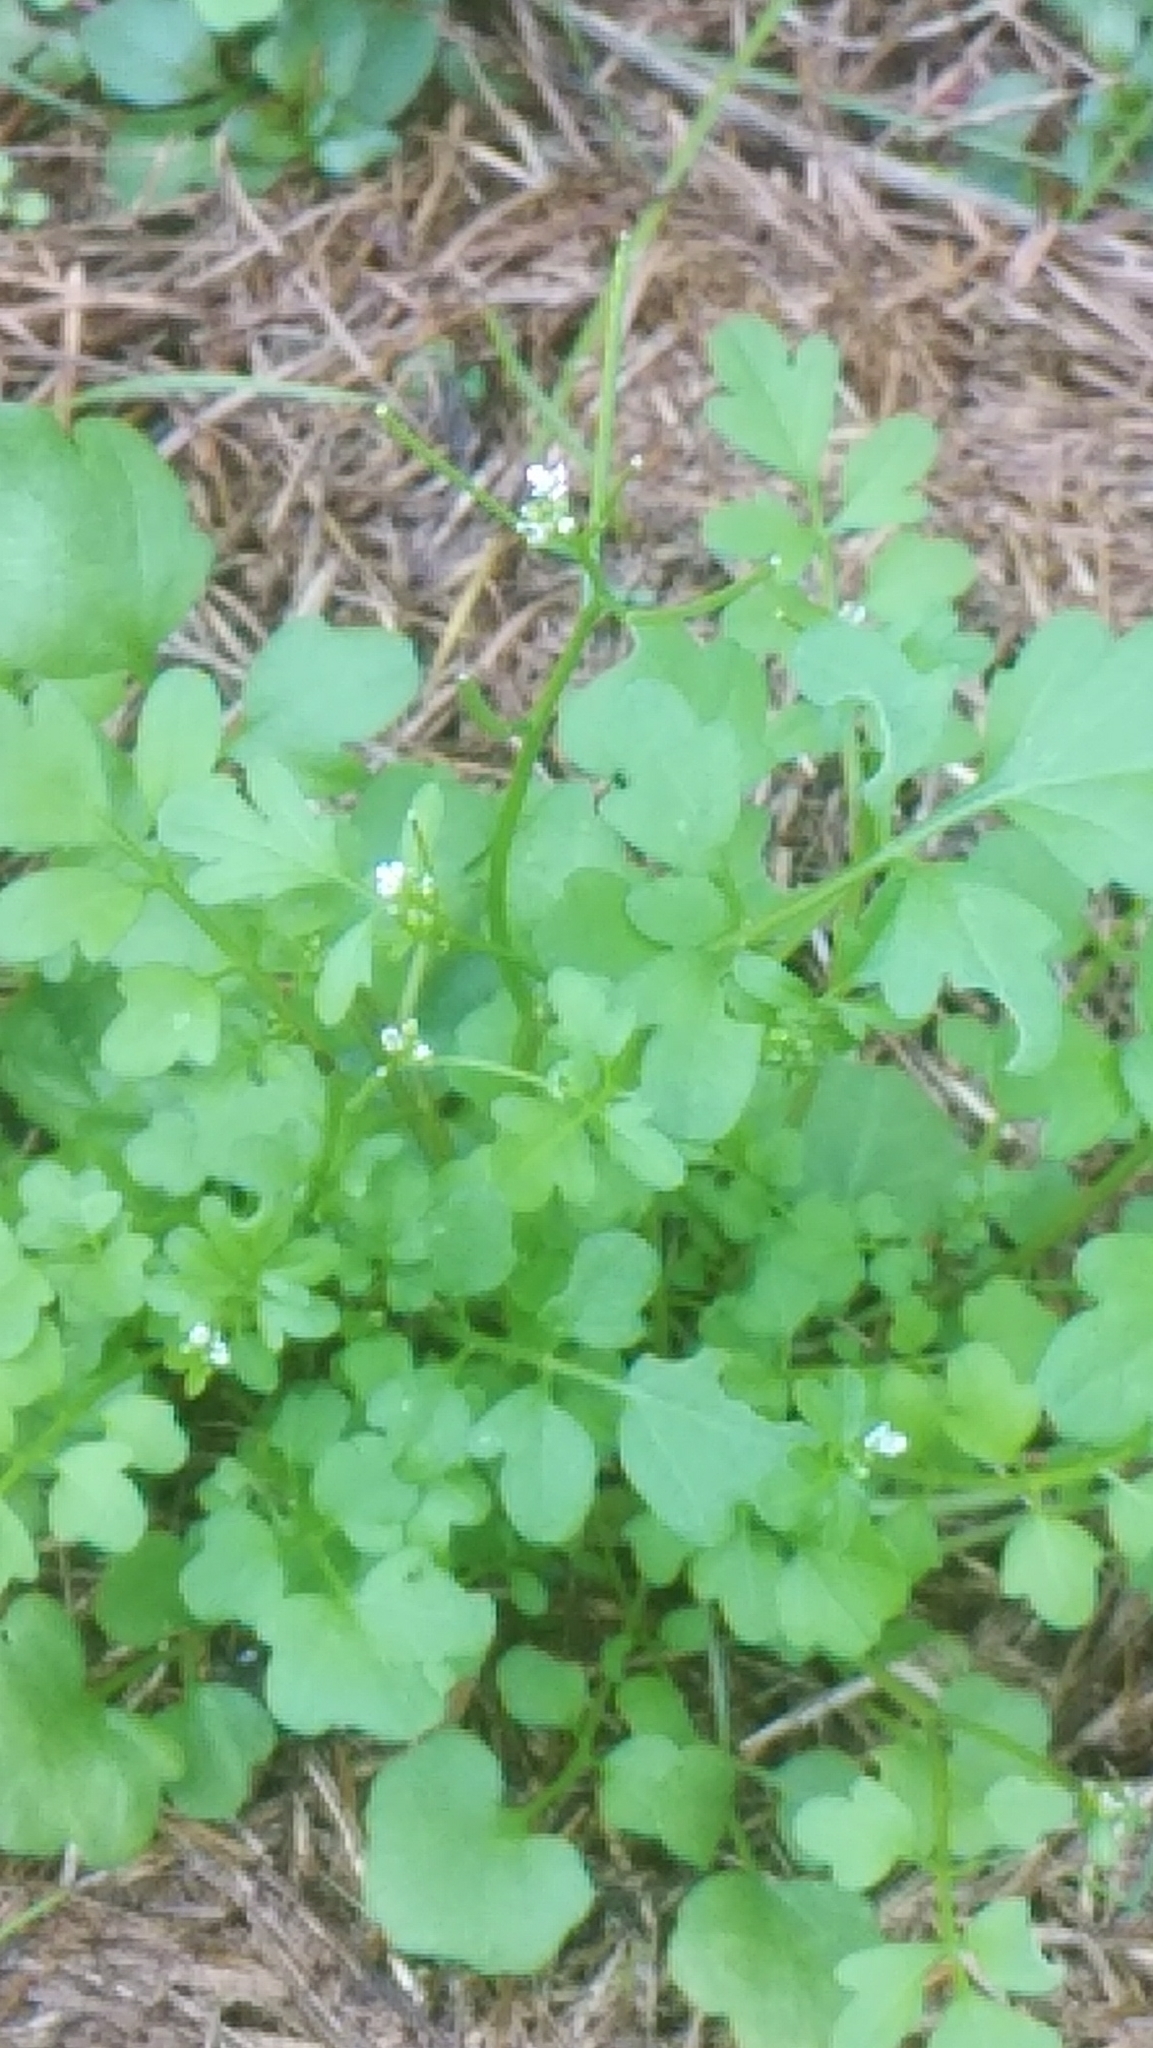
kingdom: Plantae
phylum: Tracheophyta
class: Magnoliopsida
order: Brassicales
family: Brassicaceae
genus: Cardamine
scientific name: Cardamine occulta
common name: Asian wavy bittercress
